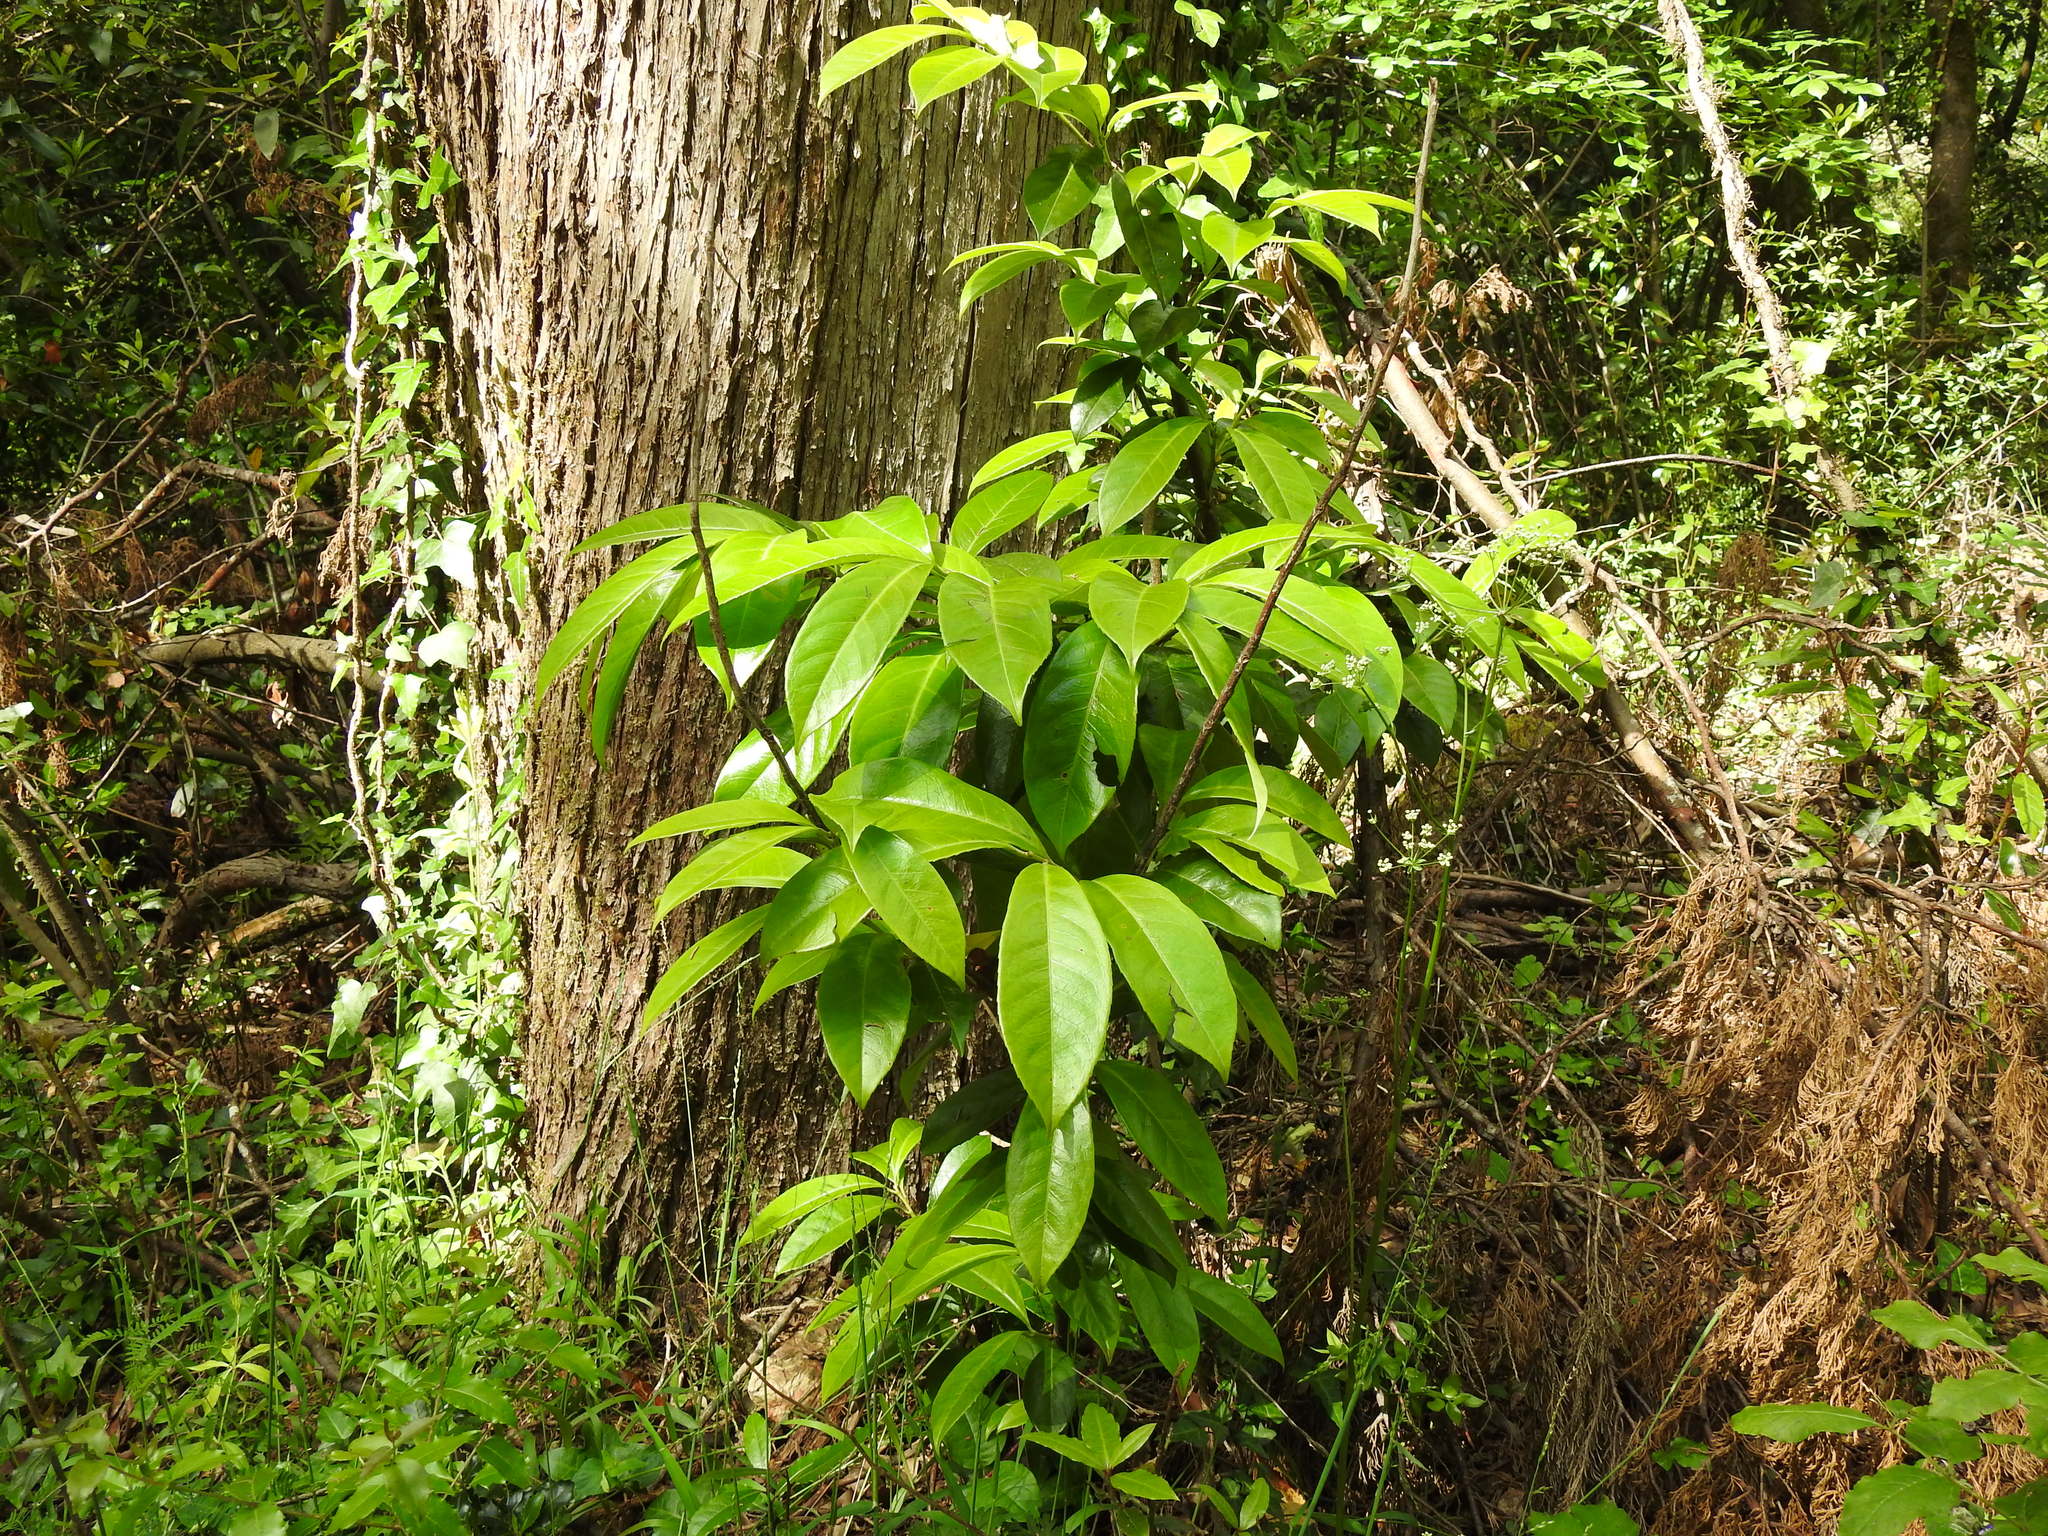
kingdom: Plantae
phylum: Tracheophyta
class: Magnoliopsida
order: Rosales
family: Rosaceae
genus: Prunus
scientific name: Prunus laurocerasus
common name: Cherry laurel
